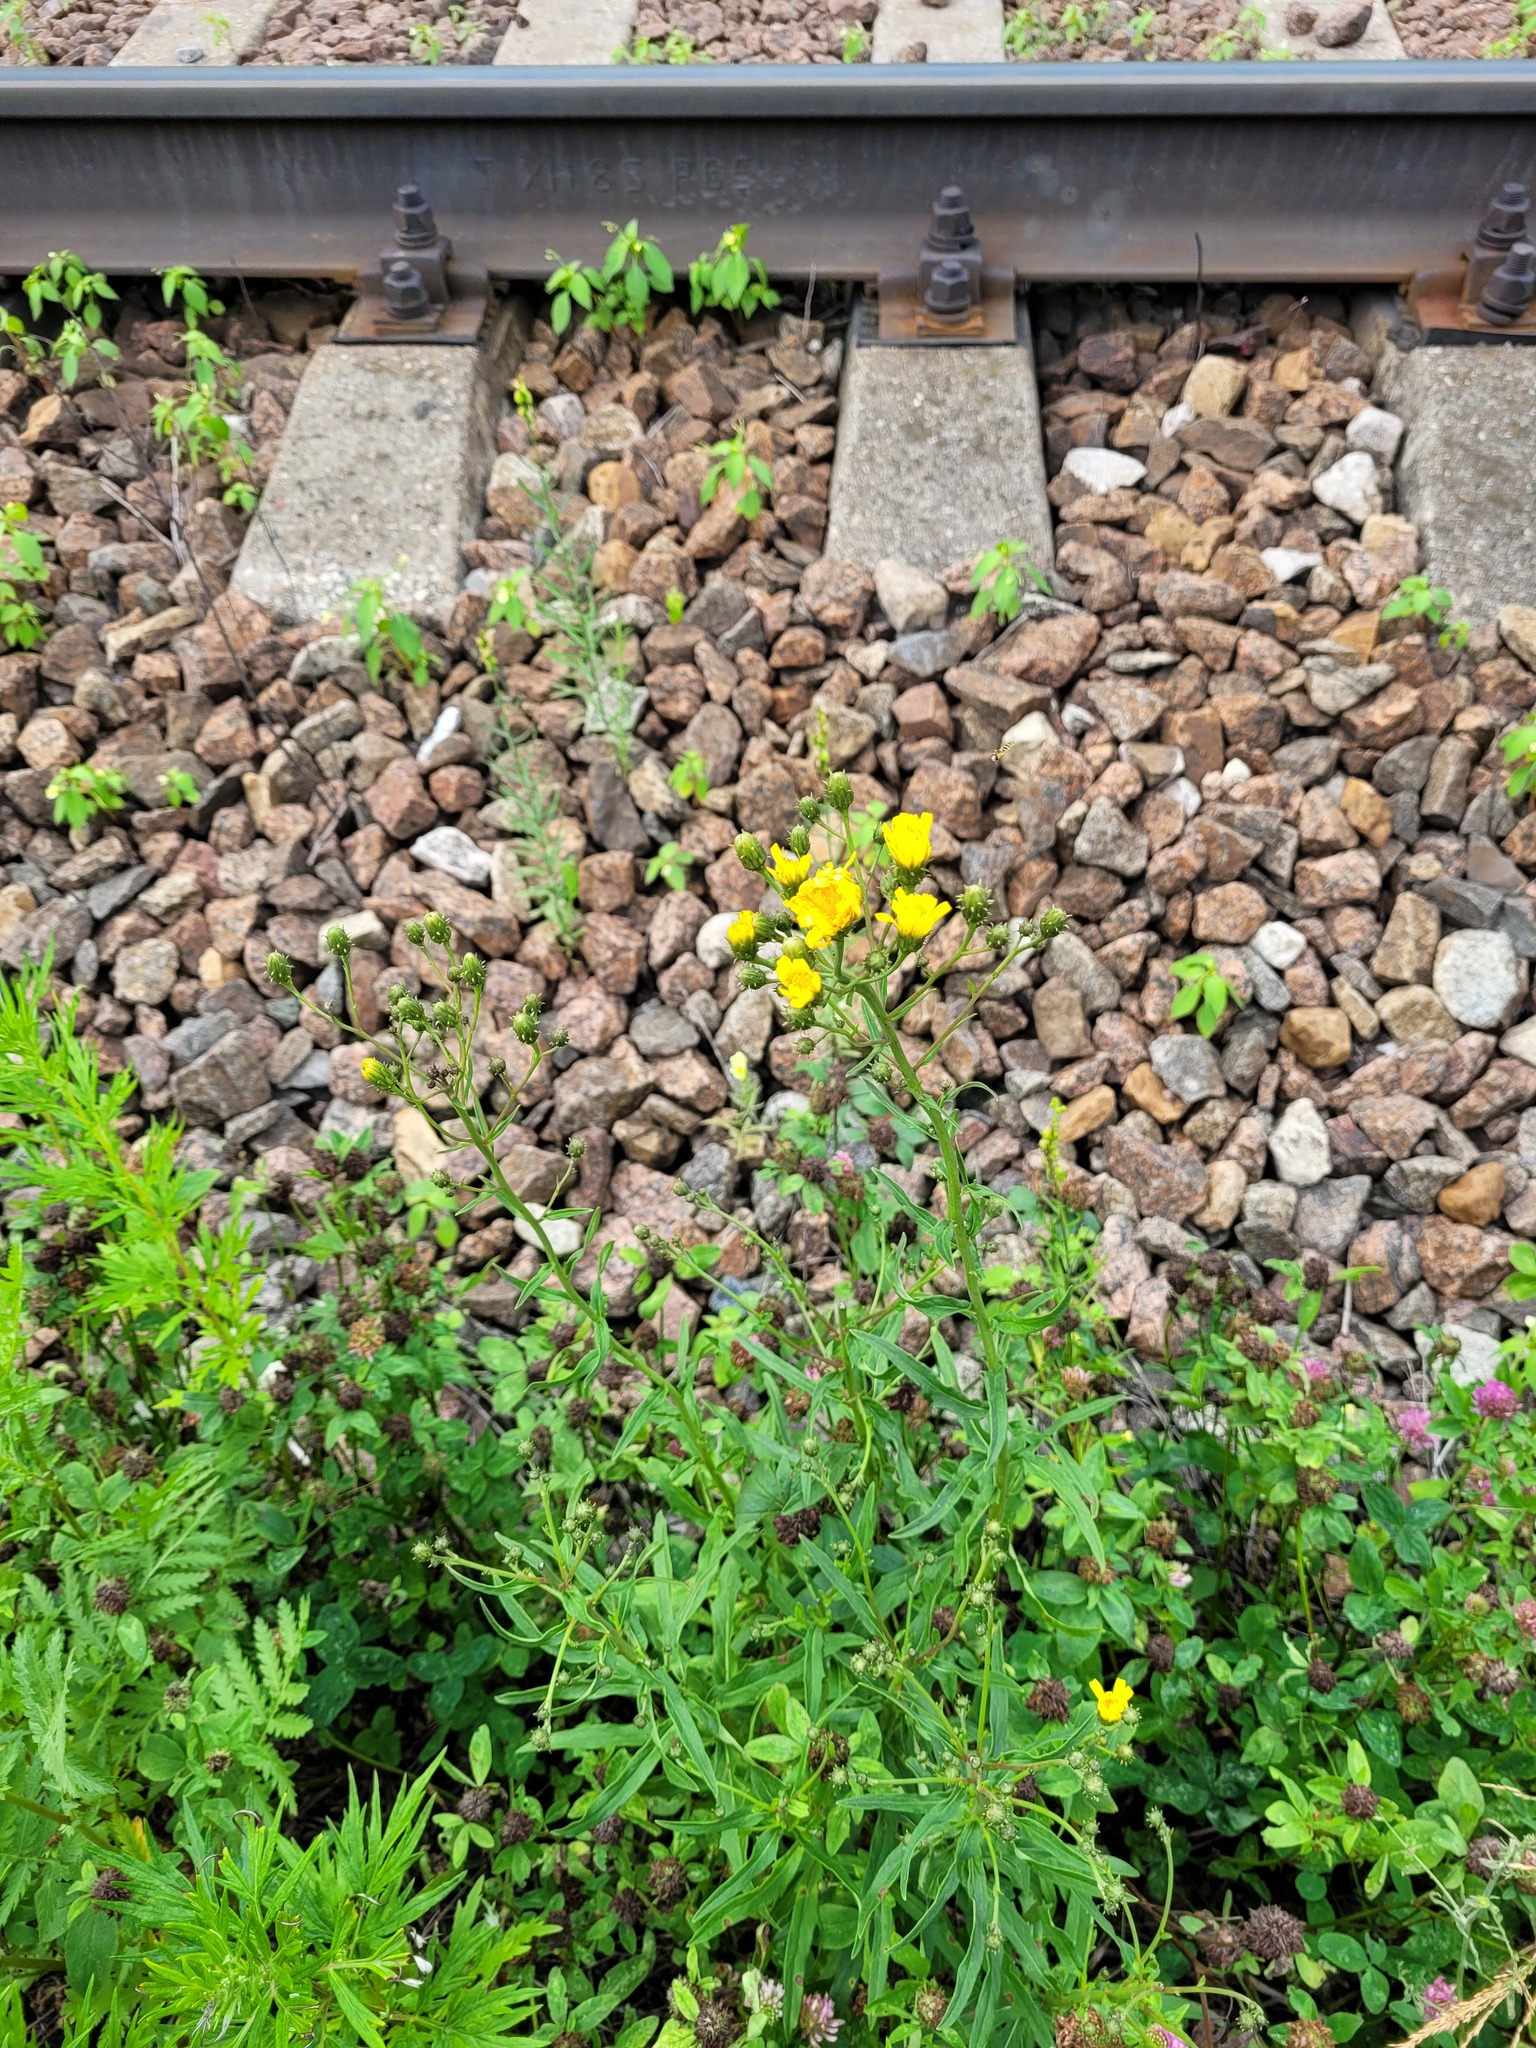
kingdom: Plantae
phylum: Tracheophyta
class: Magnoliopsida
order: Asterales
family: Asteraceae
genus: Hieracium
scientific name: Hieracium umbellatum
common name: Northern hawkweed
